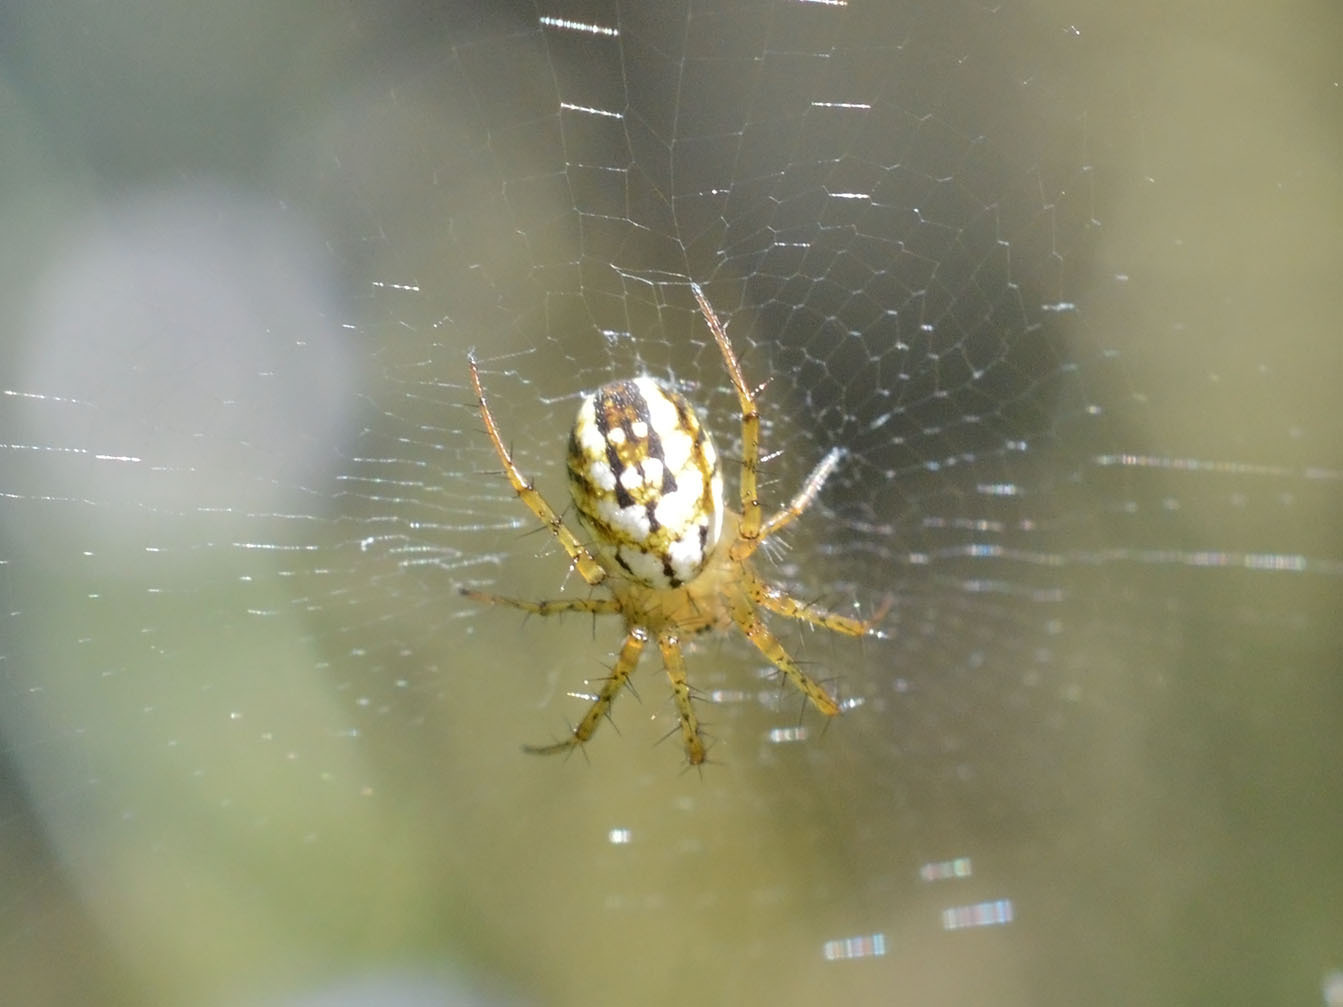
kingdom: Animalia
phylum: Arthropoda
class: Arachnida
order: Araneae
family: Araneidae
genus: Mangora
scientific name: Mangora acalypha
